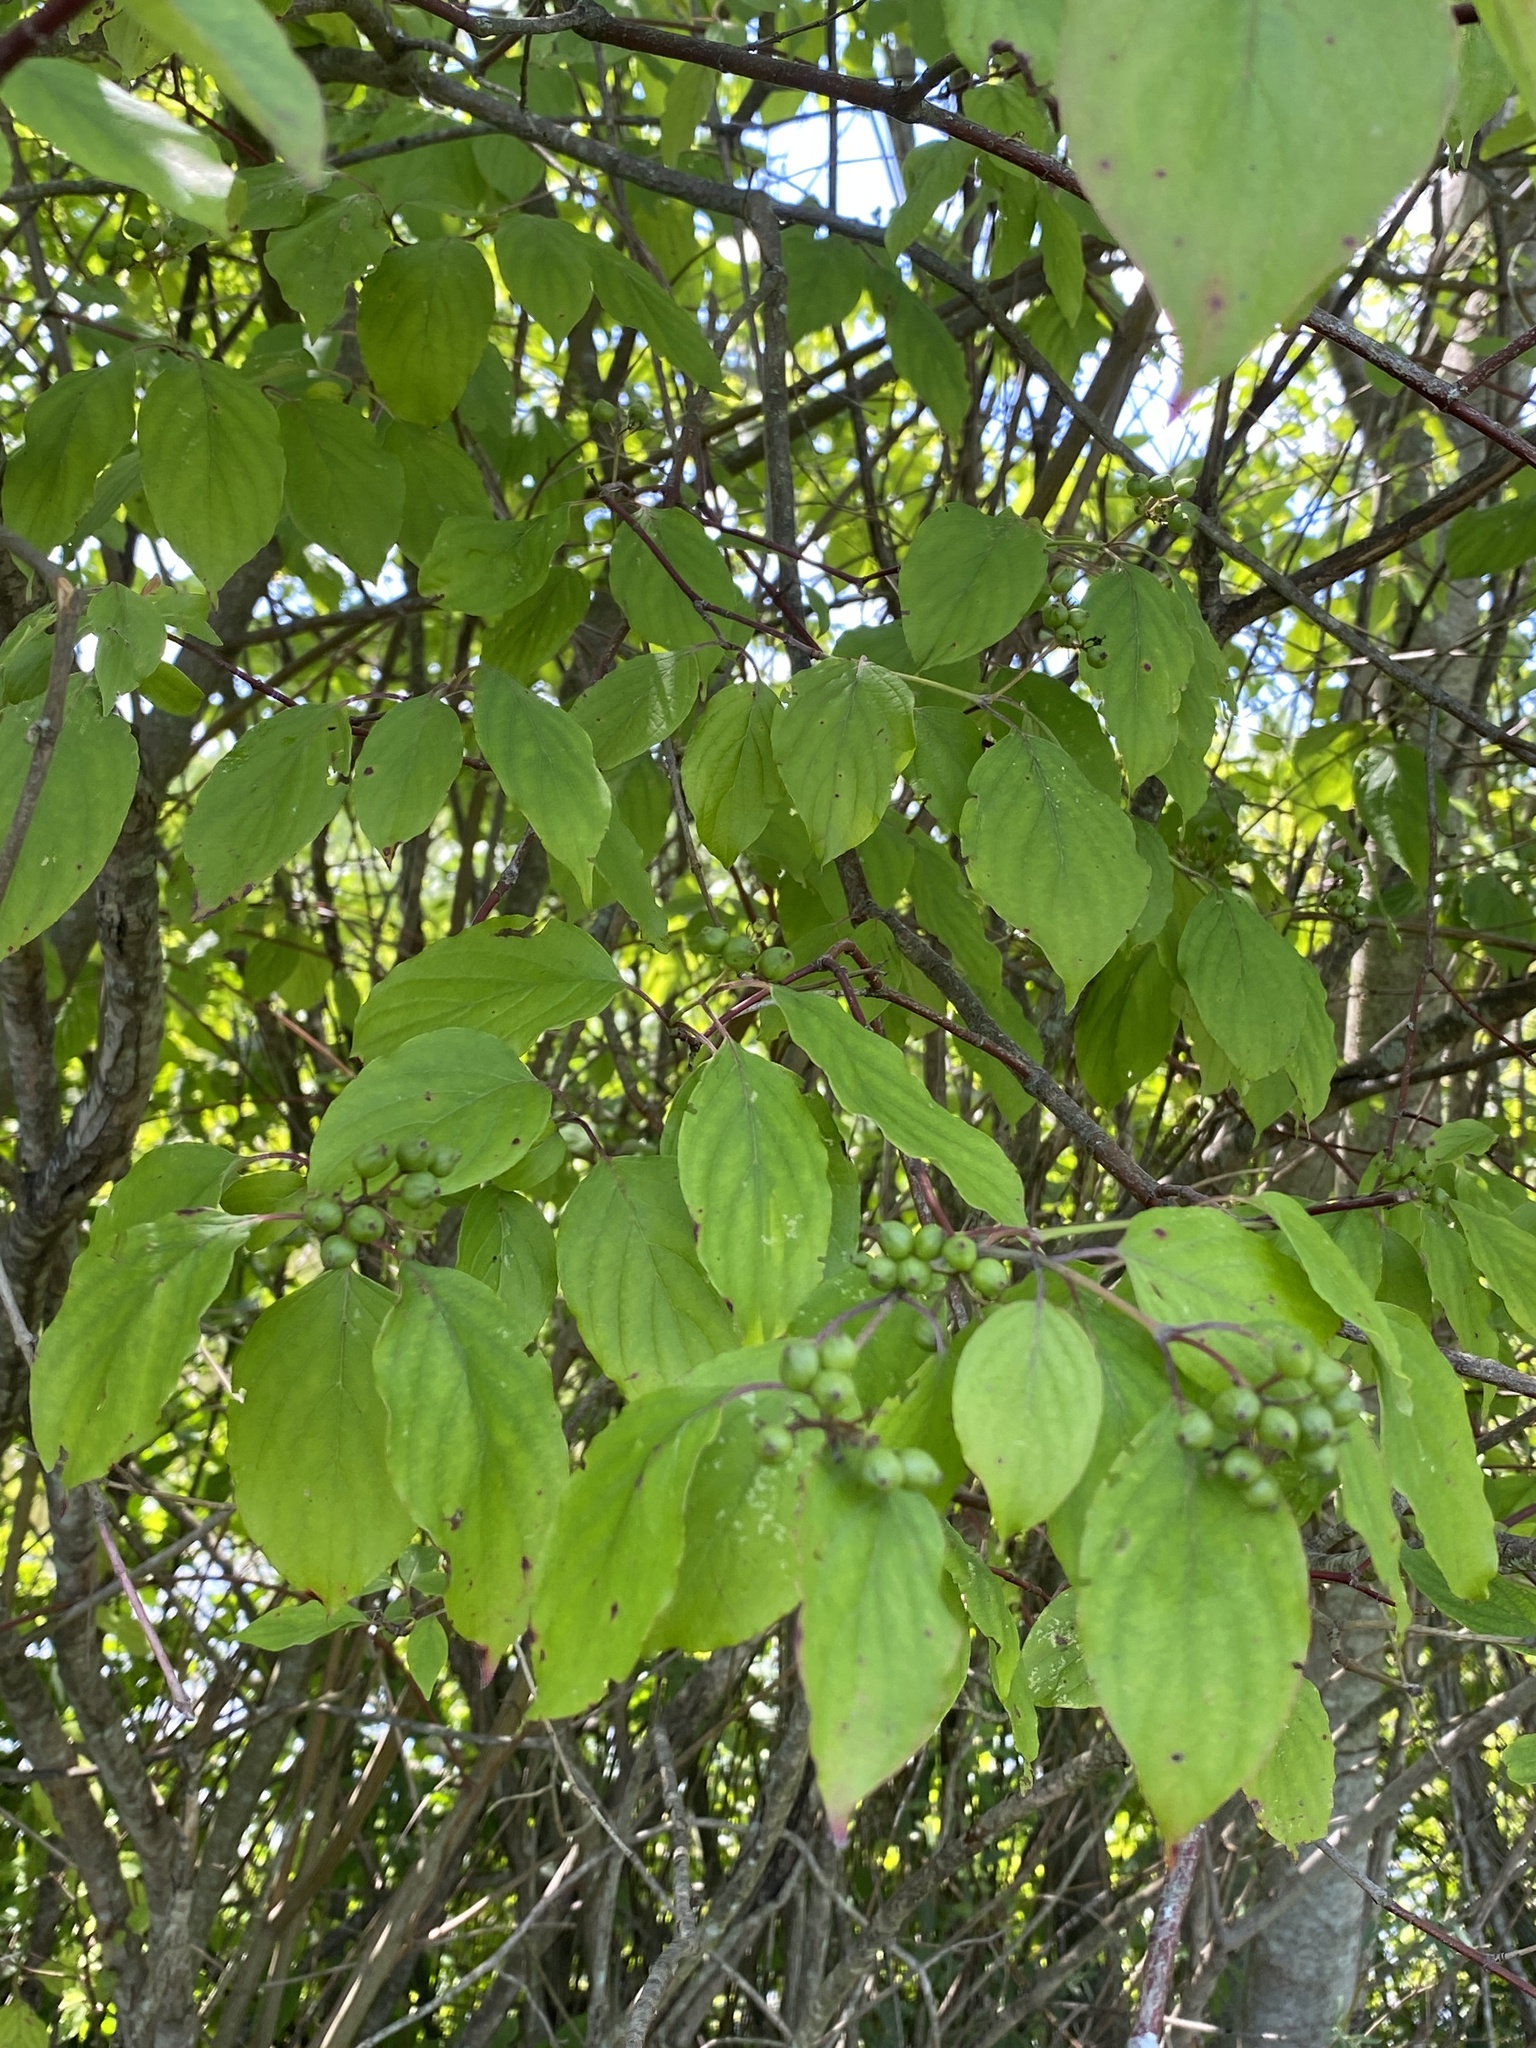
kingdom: Plantae
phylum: Tracheophyta
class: Magnoliopsida
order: Cornales
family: Cornaceae
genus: Cornus
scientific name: Cornus amomum
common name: Silky dogwood
